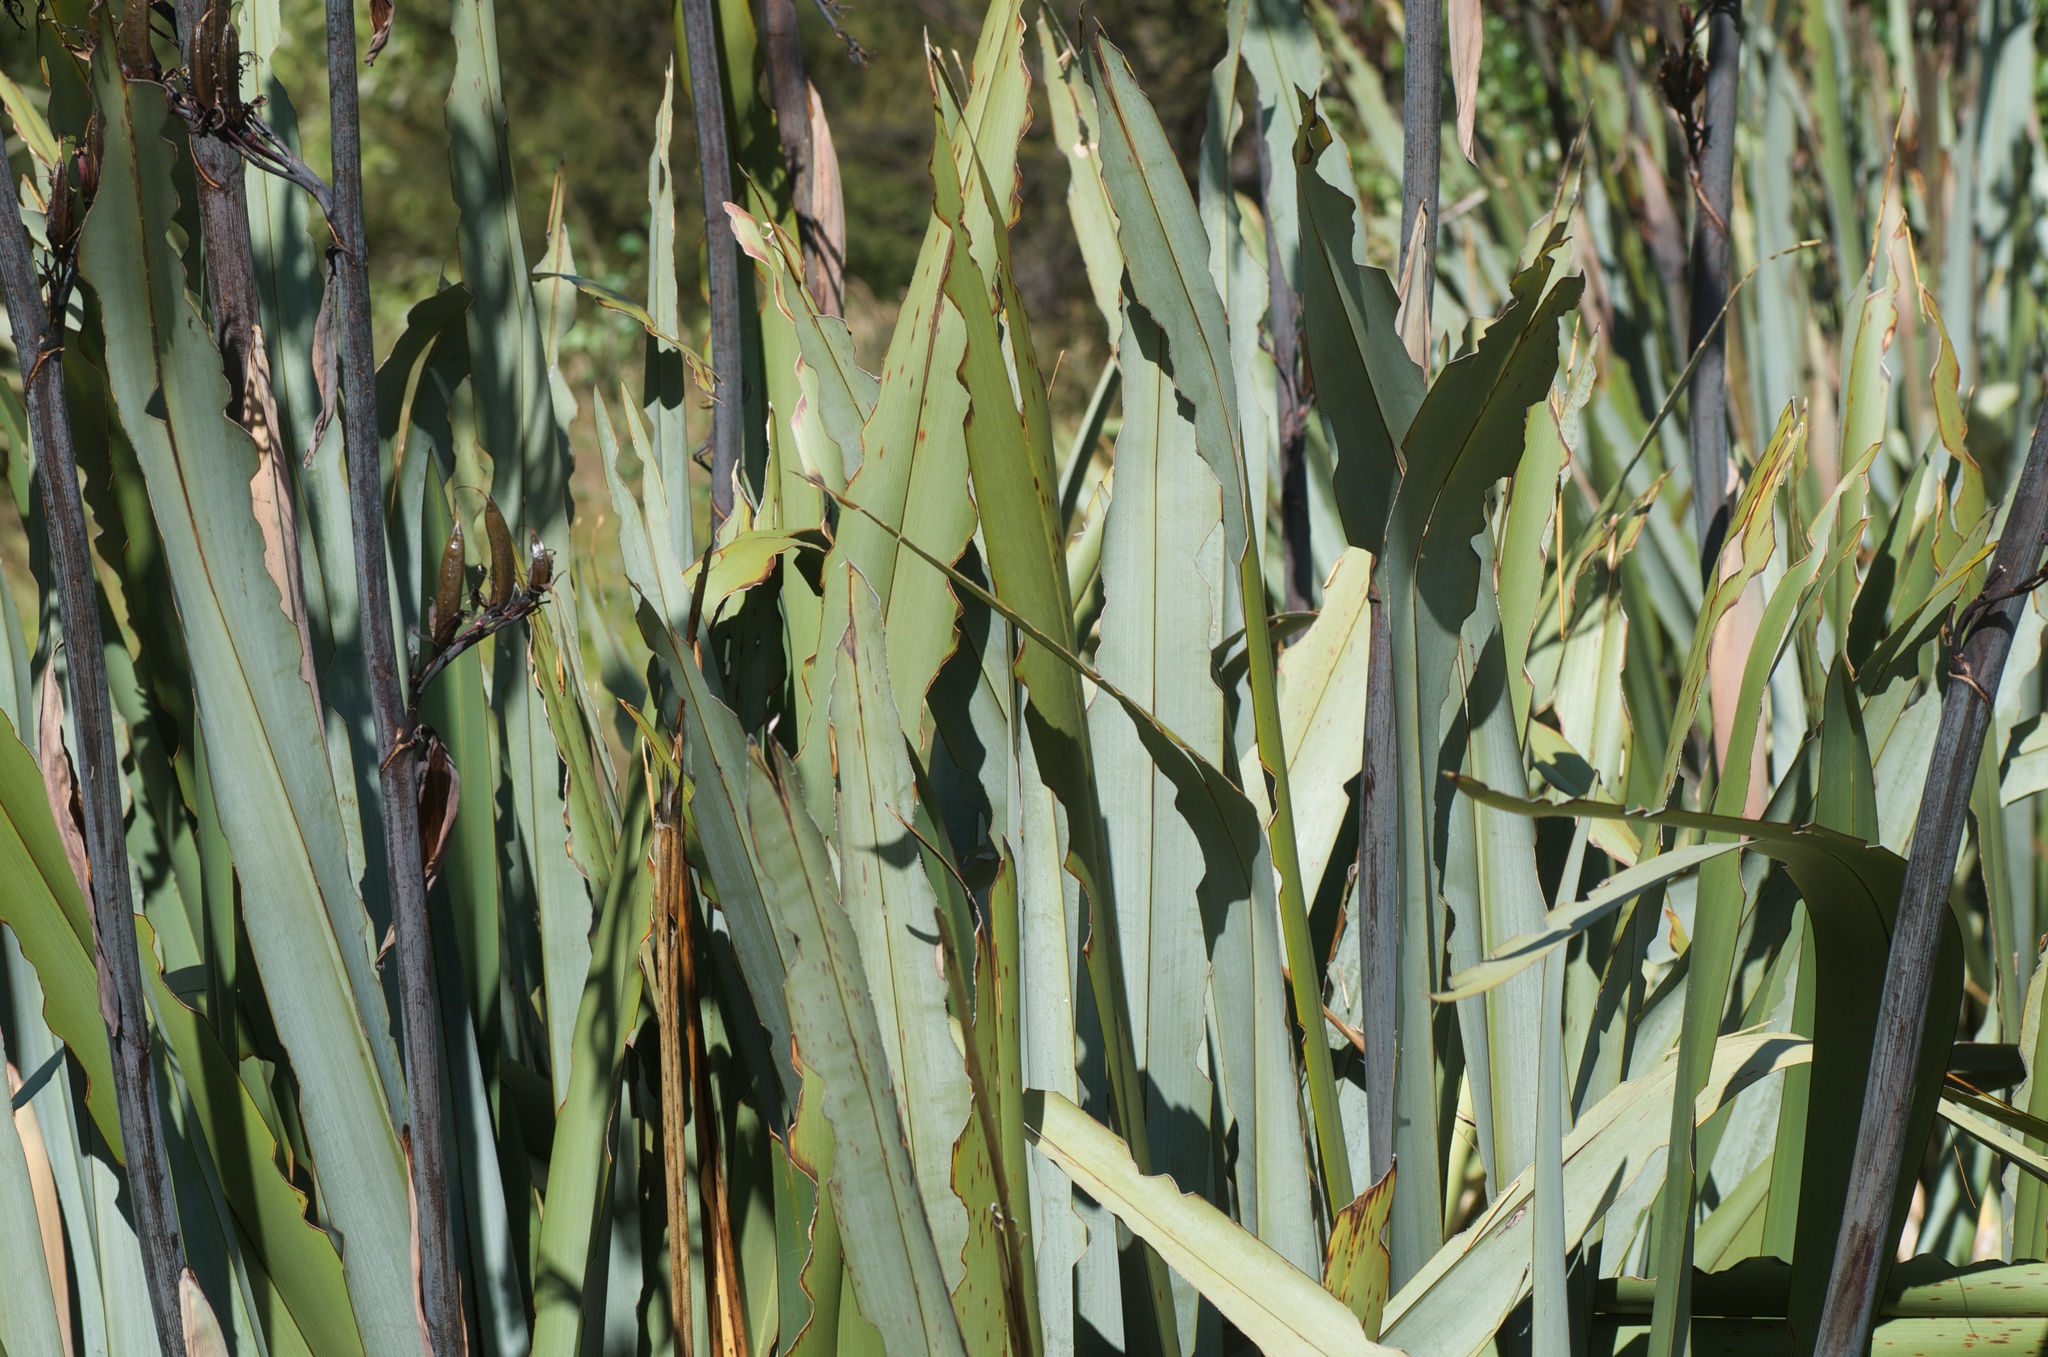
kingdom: Animalia
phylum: Arthropoda
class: Insecta
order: Lepidoptera
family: Noctuidae
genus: Ichneutica
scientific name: Ichneutica
